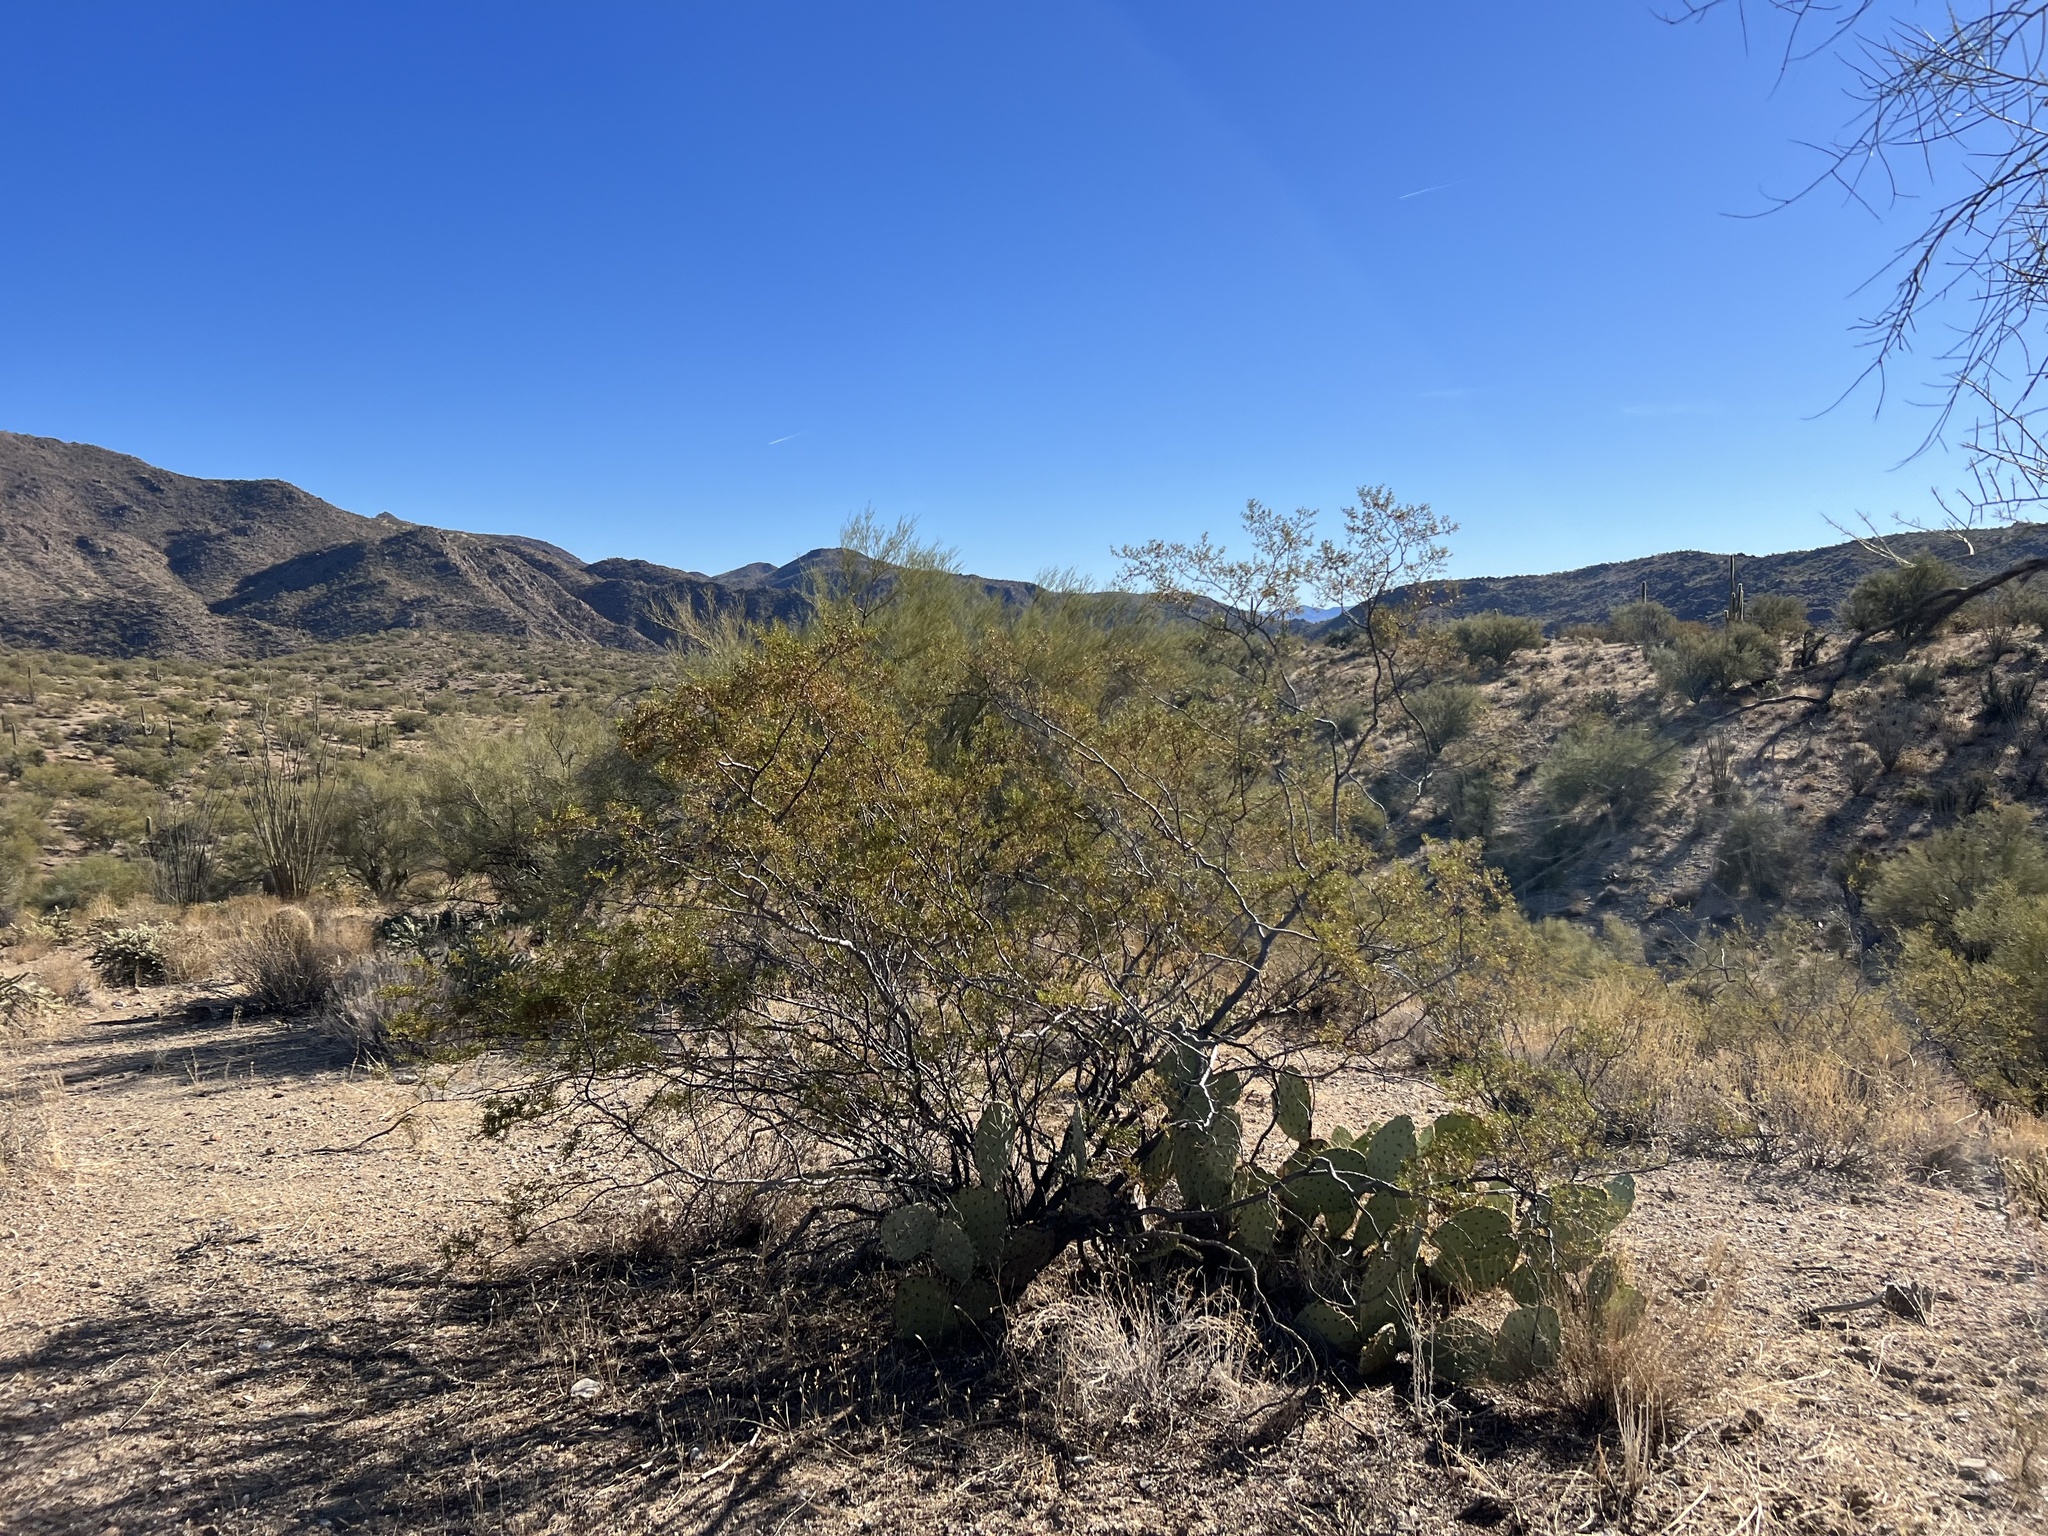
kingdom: Plantae
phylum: Tracheophyta
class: Magnoliopsida
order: Zygophyllales
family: Zygophyllaceae
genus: Larrea
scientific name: Larrea tridentata
